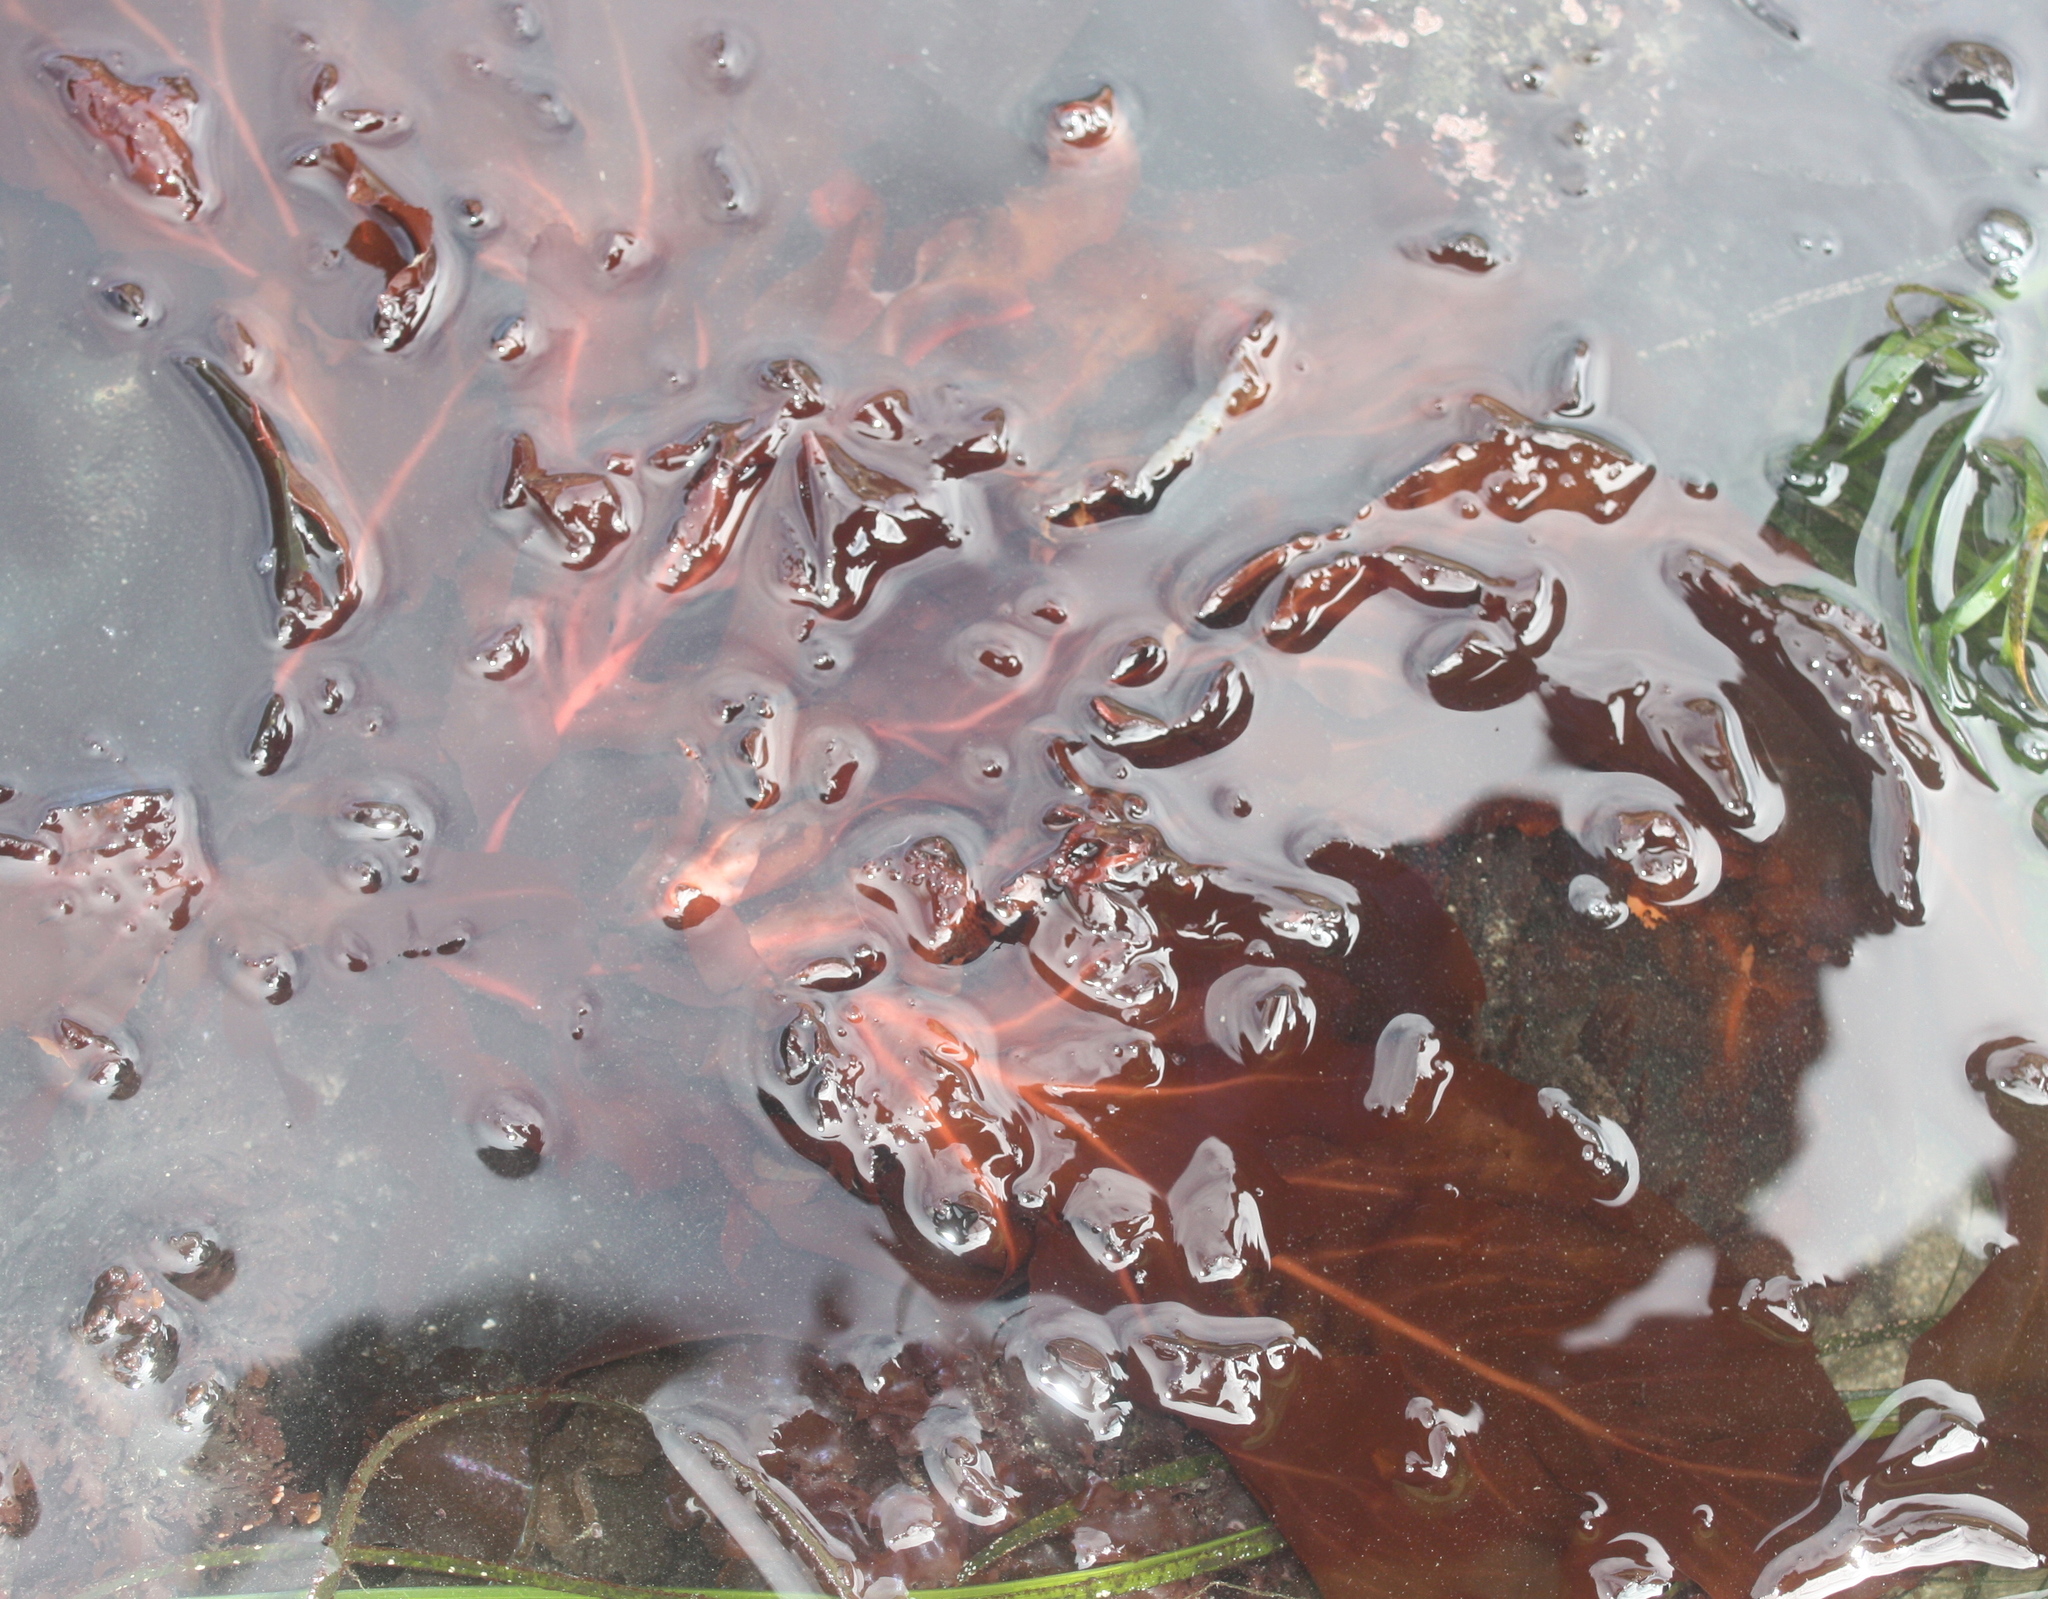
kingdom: Plantae
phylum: Rhodophyta
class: Florideophyceae
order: Gigartinales
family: Kallymeniaceae
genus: Erythrophyllum
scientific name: Erythrophyllum delesserioides
